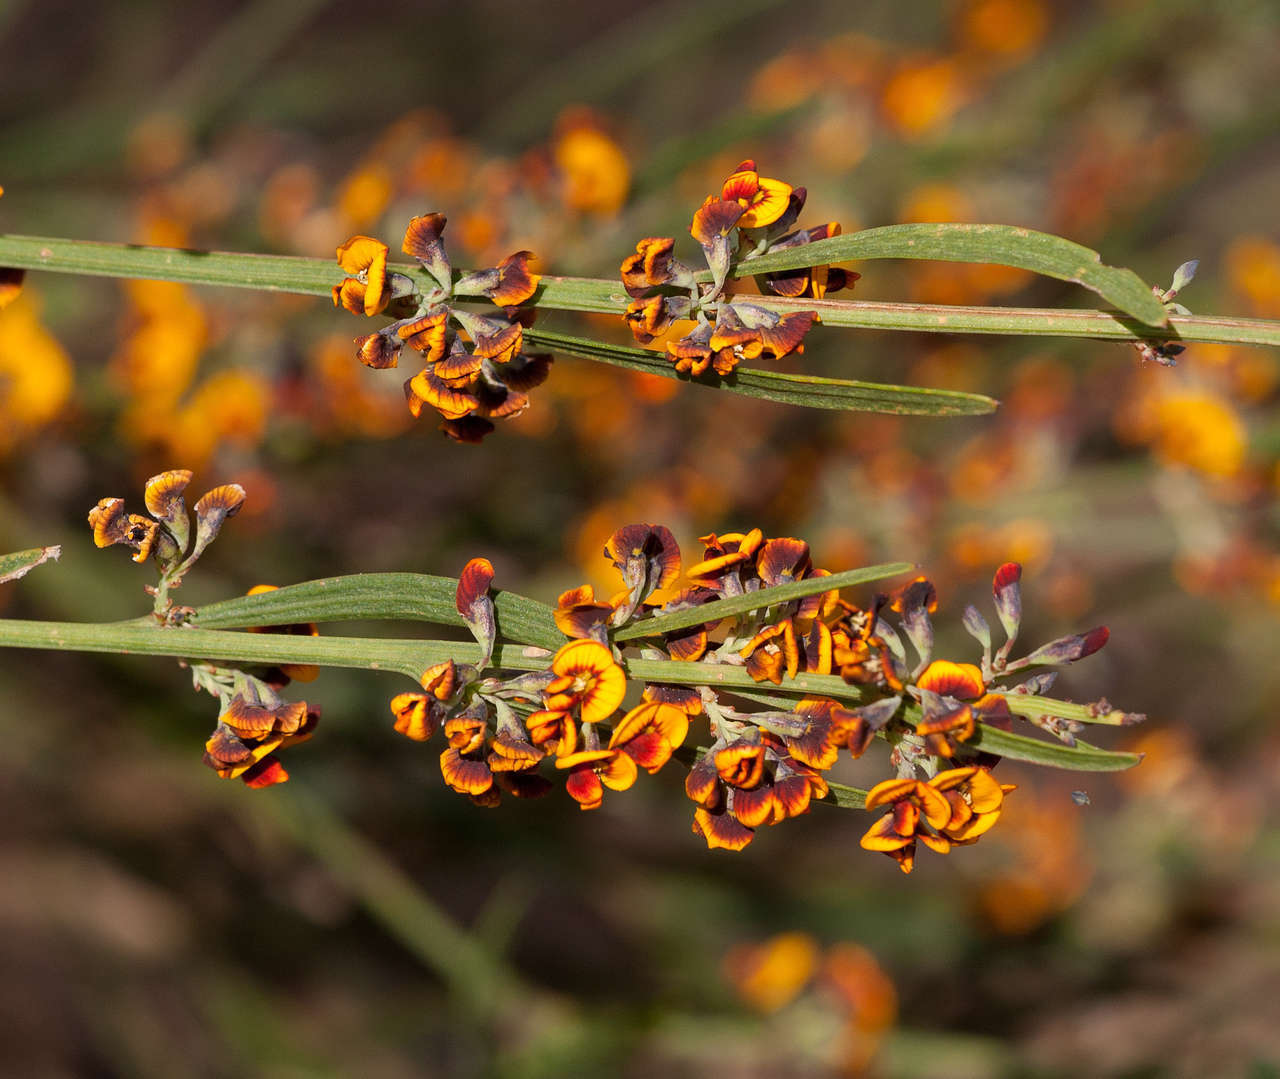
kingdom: Plantae
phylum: Tracheophyta
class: Magnoliopsida
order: Fabales
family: Fabaceae
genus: Daviesia
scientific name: Daviesia leptophylla
